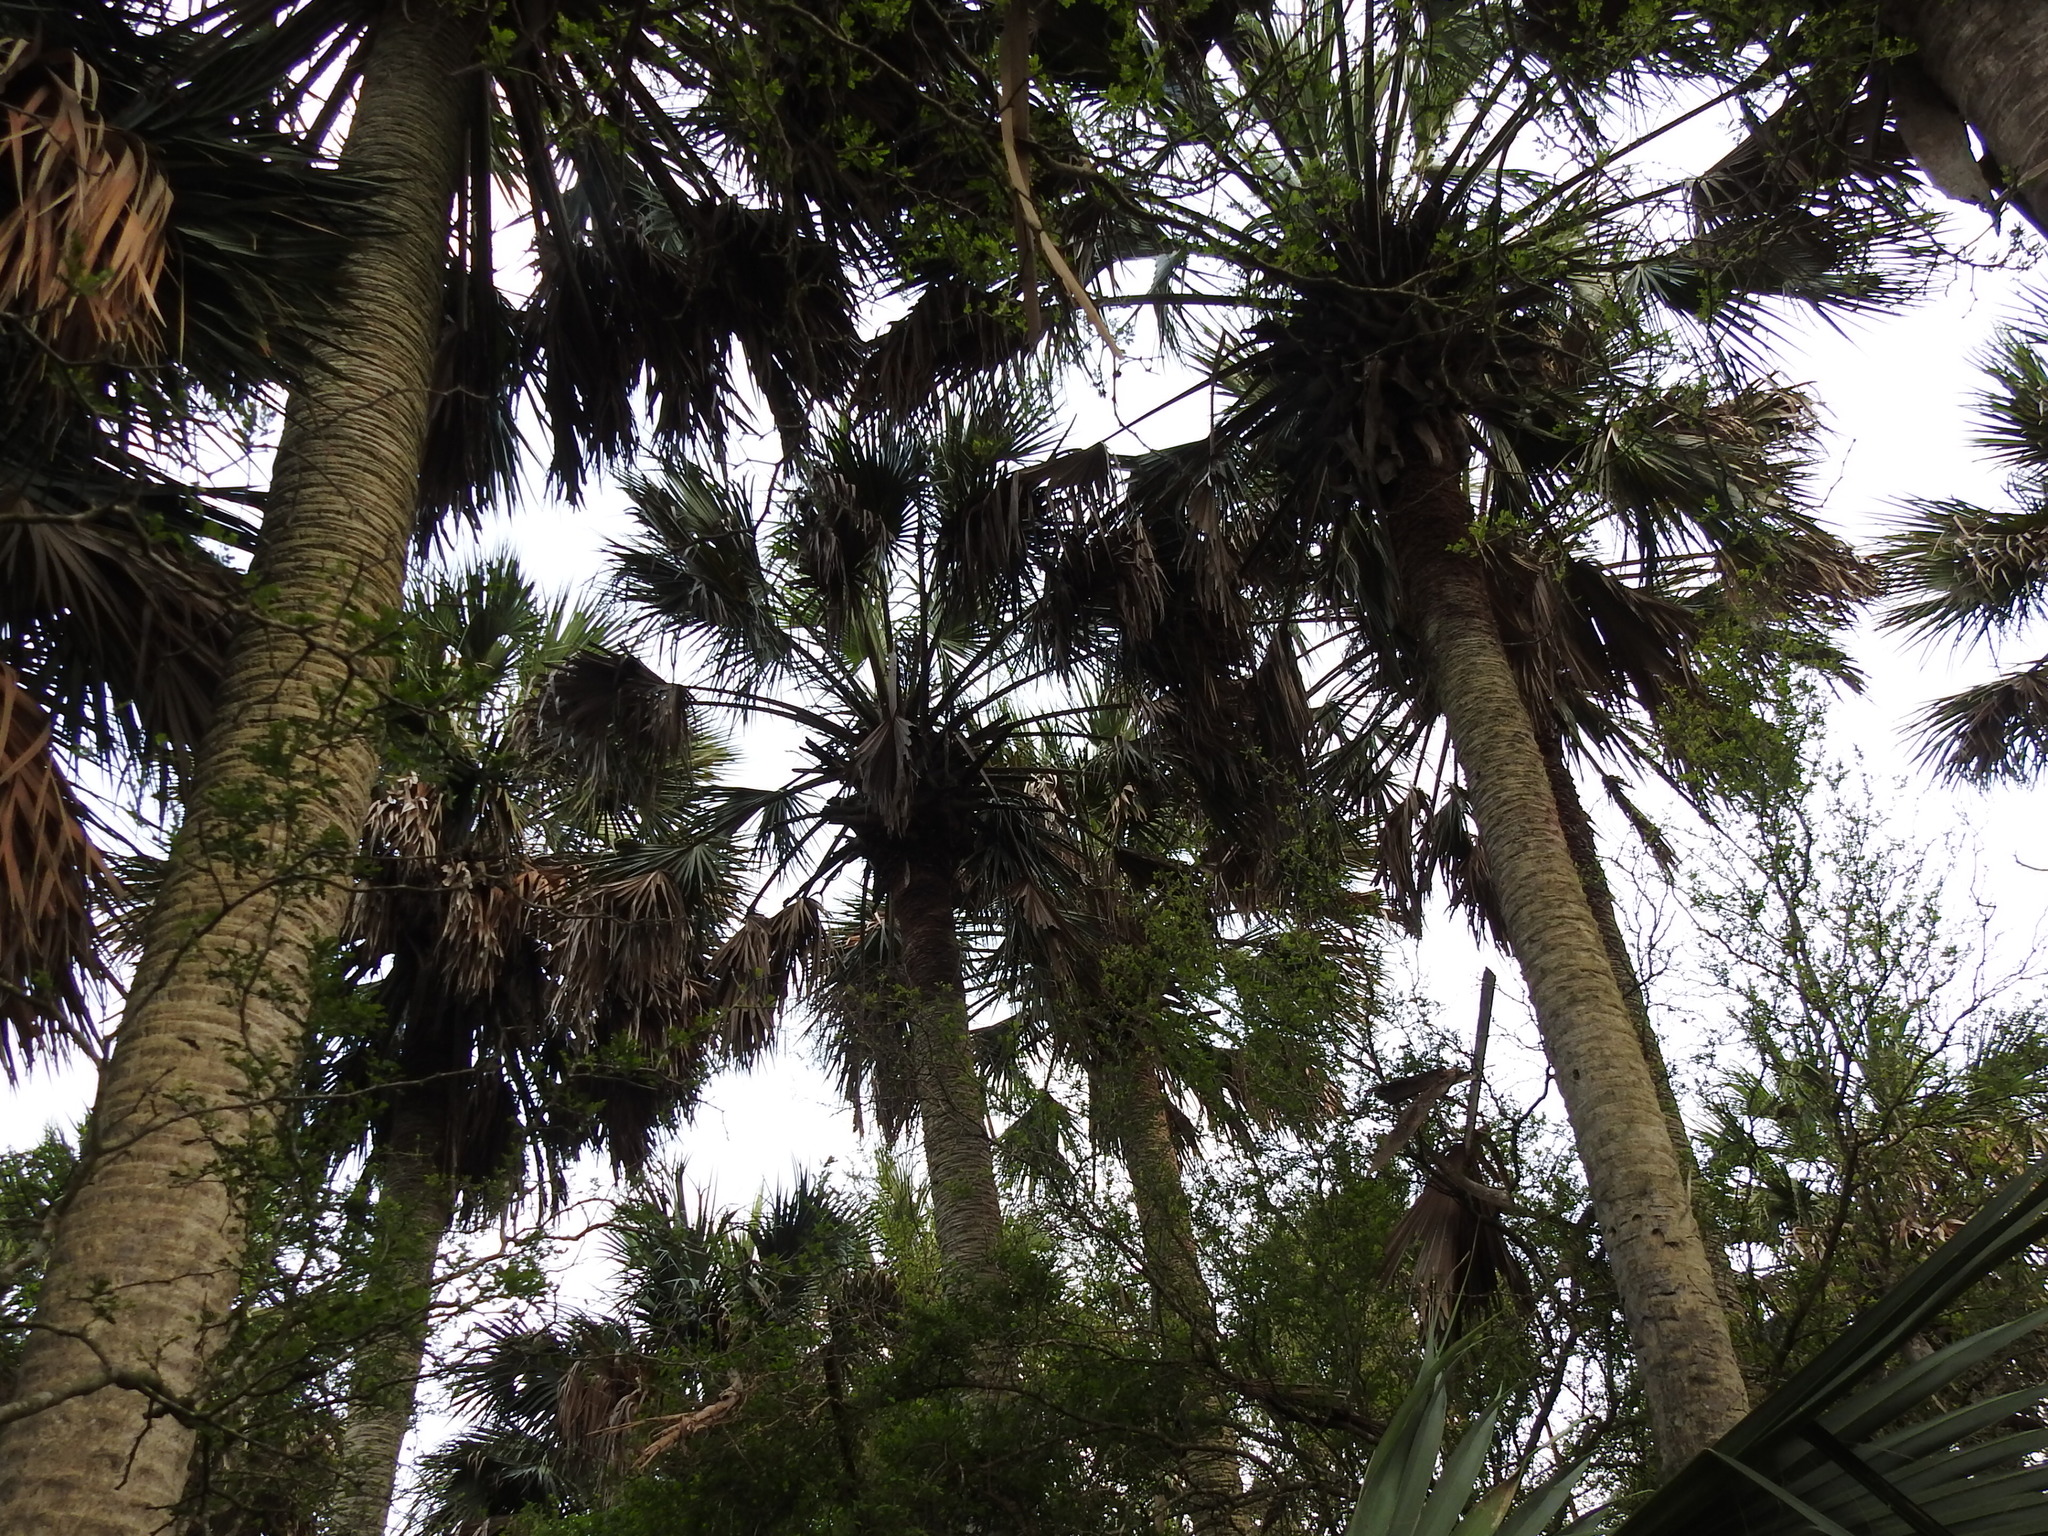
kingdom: Plantae
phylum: Tracheophyta
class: Liliopsida
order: Arecales
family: Arecaceae
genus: Sabal
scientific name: Sabal mexicana
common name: Texas palmetto
